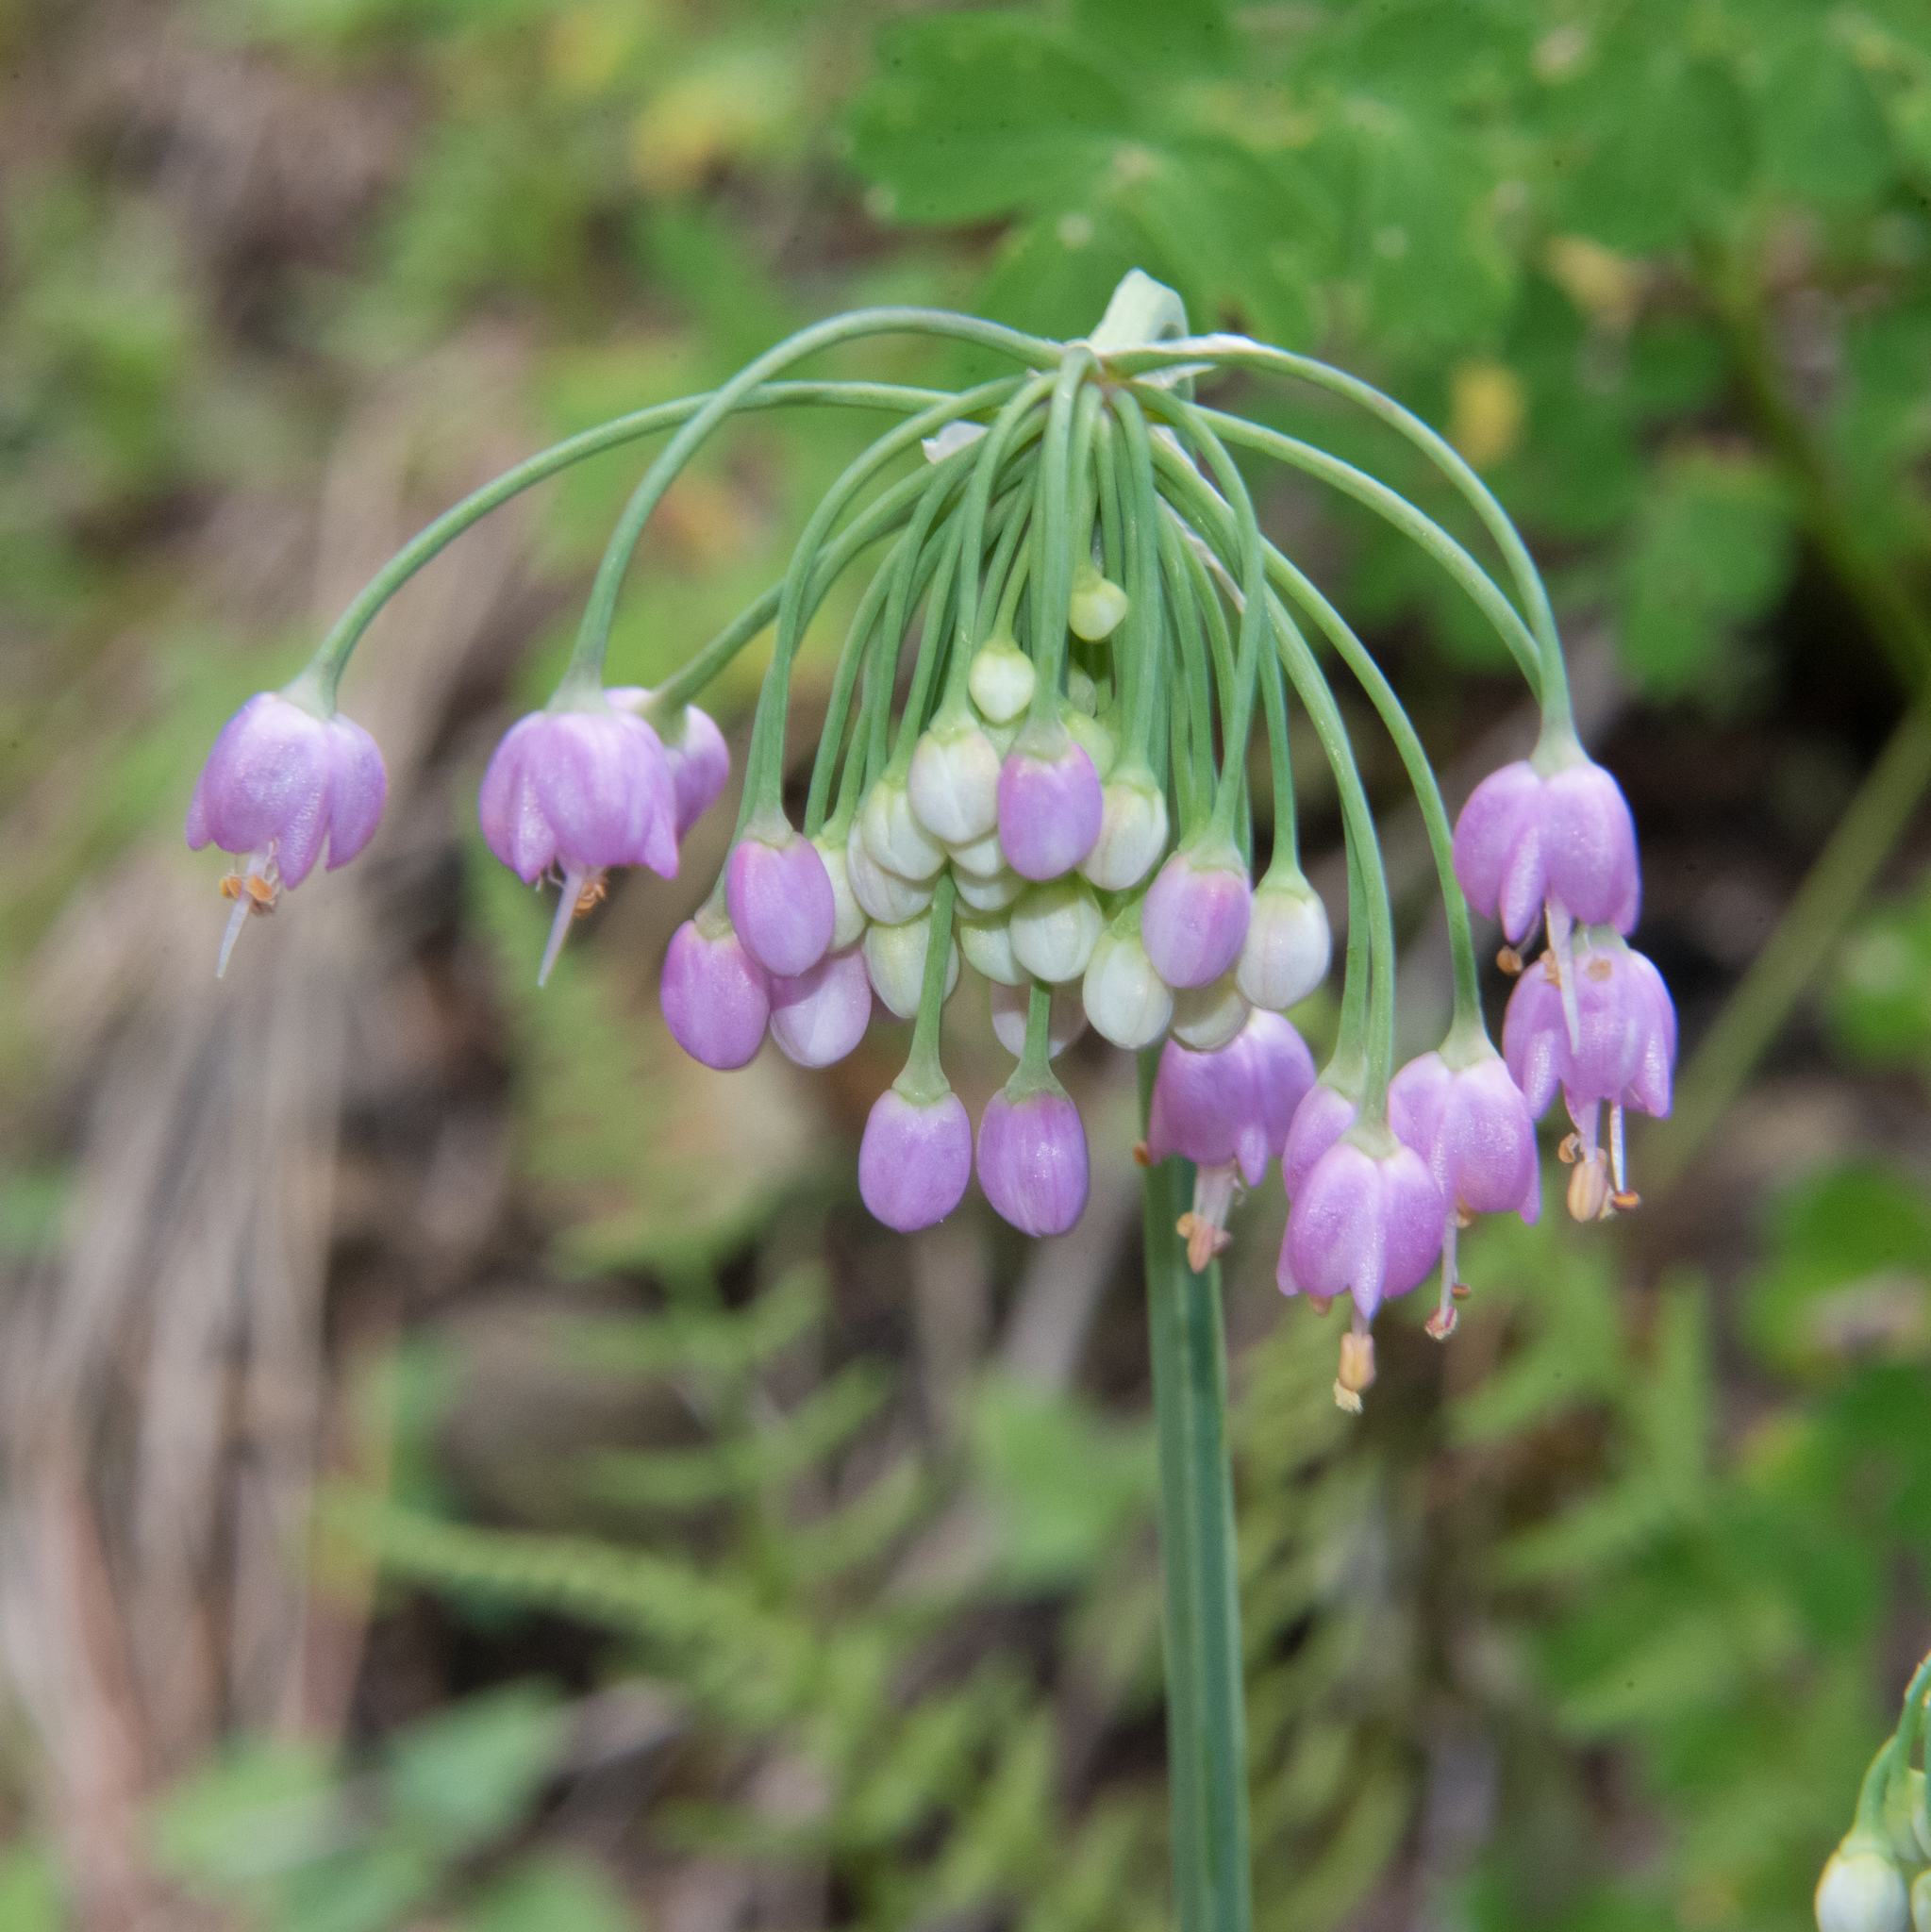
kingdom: Plantae
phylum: Tracheophyta
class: Liliopsida
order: Asparagales
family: Amaryllidaceae
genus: Allium
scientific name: Allium cernuum
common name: Nodding onion
